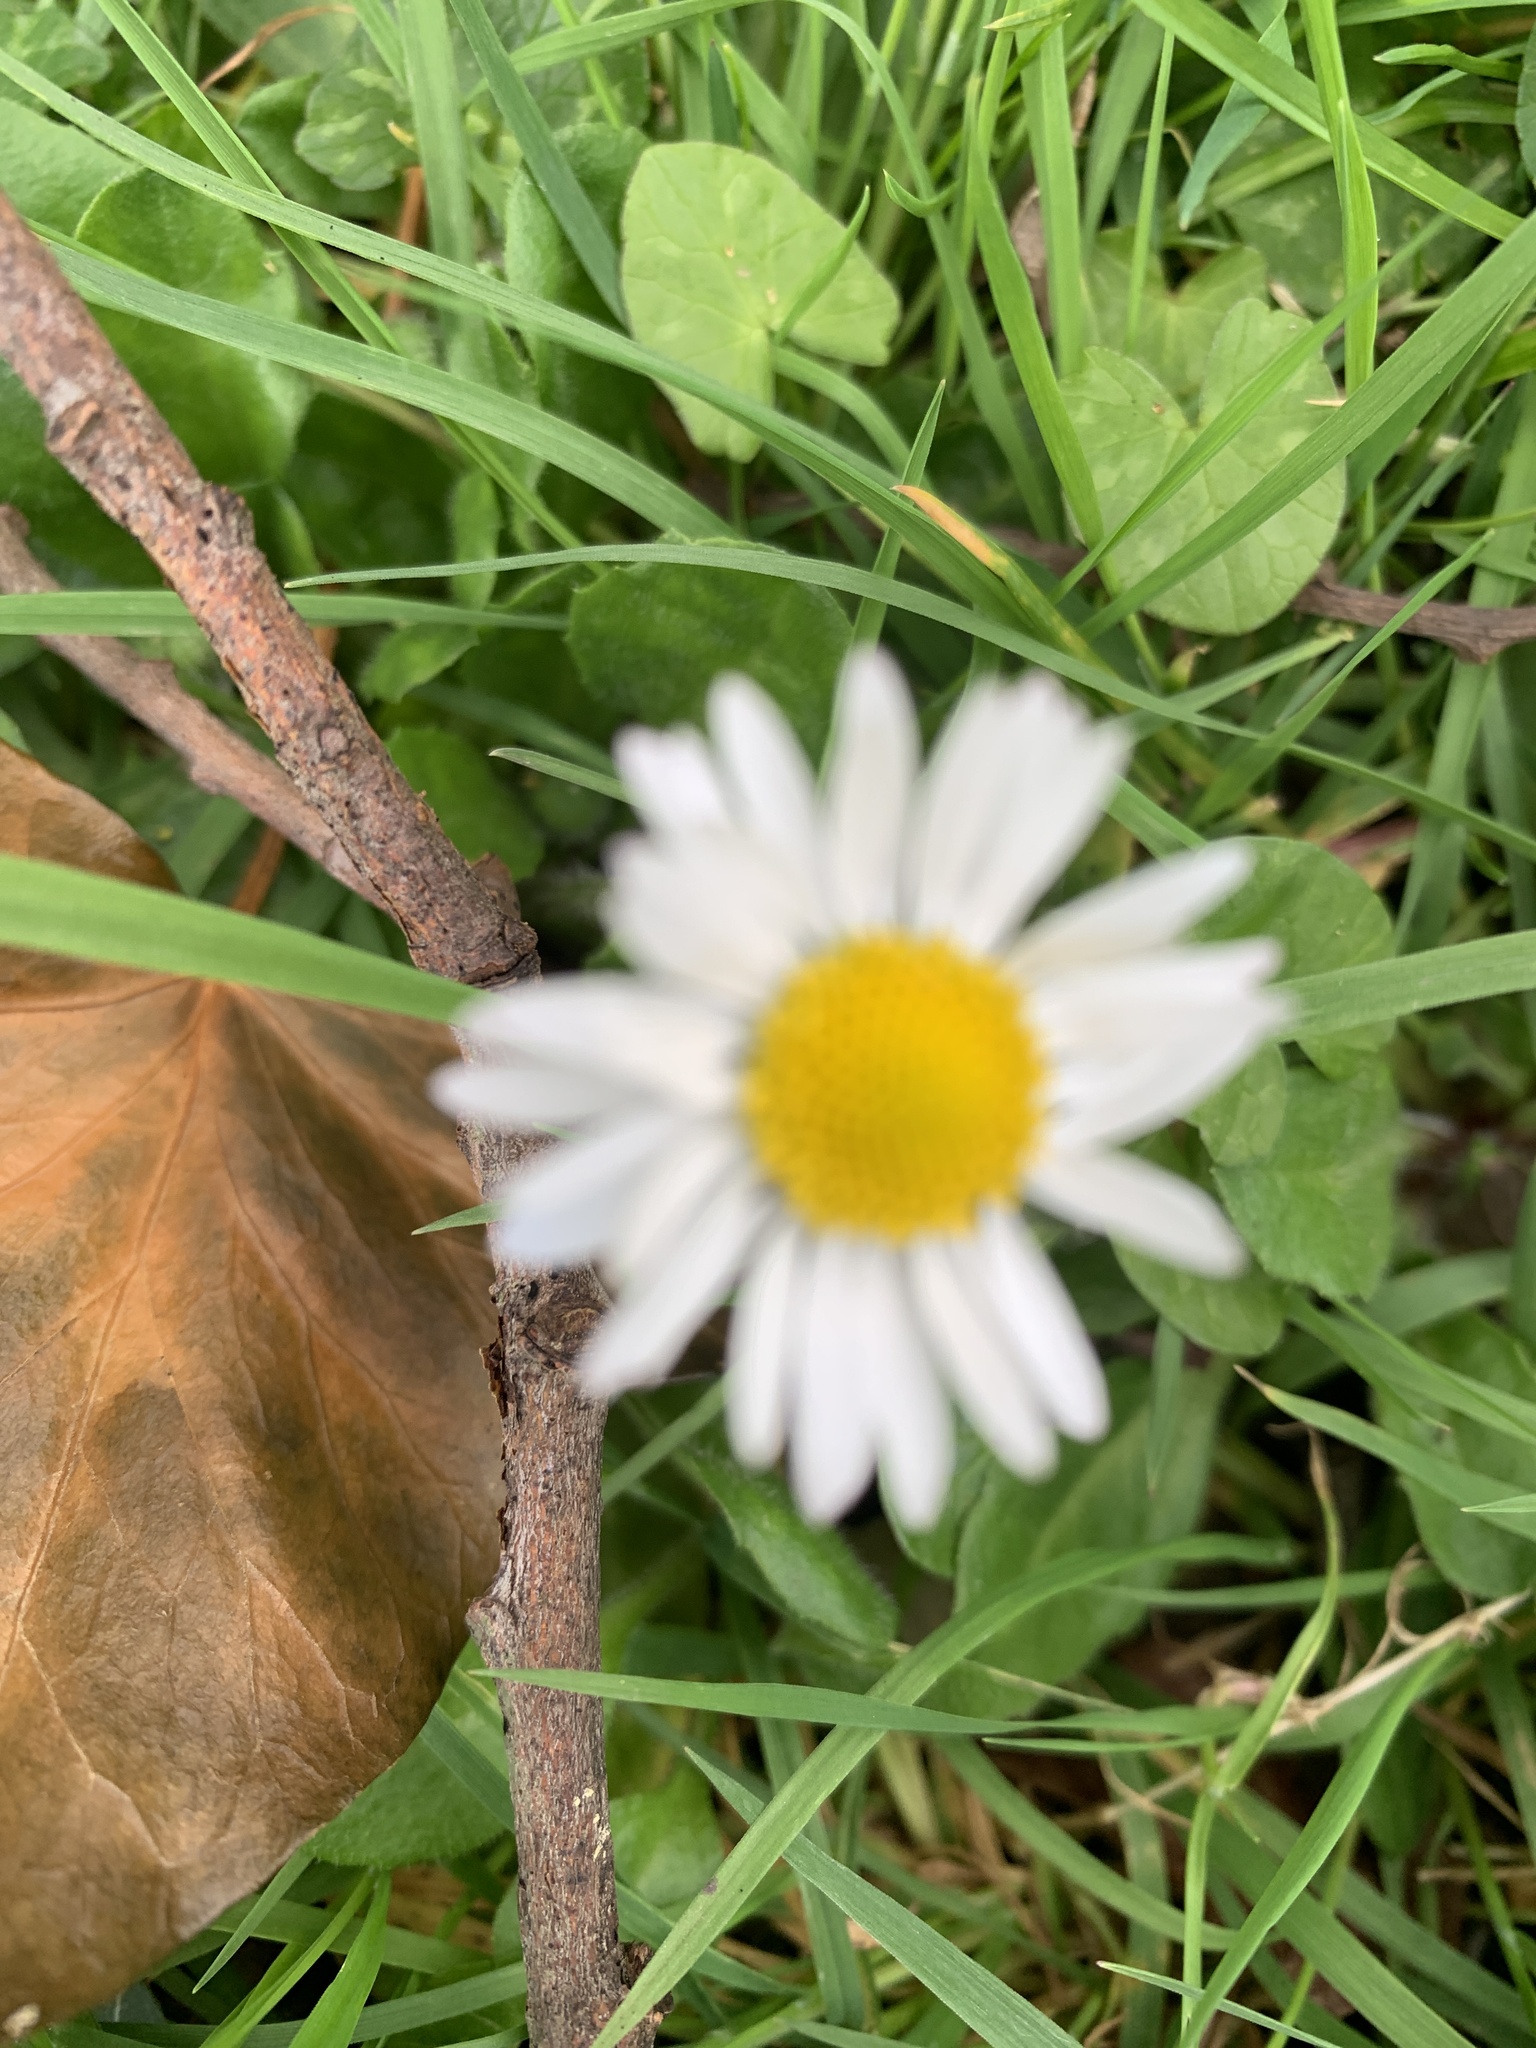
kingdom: Plantae
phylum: Tracheophyta
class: Magnoliopsida
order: Asterales
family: Asteraceae
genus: Bellis
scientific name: Bellis perennis
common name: Lawndaisy
